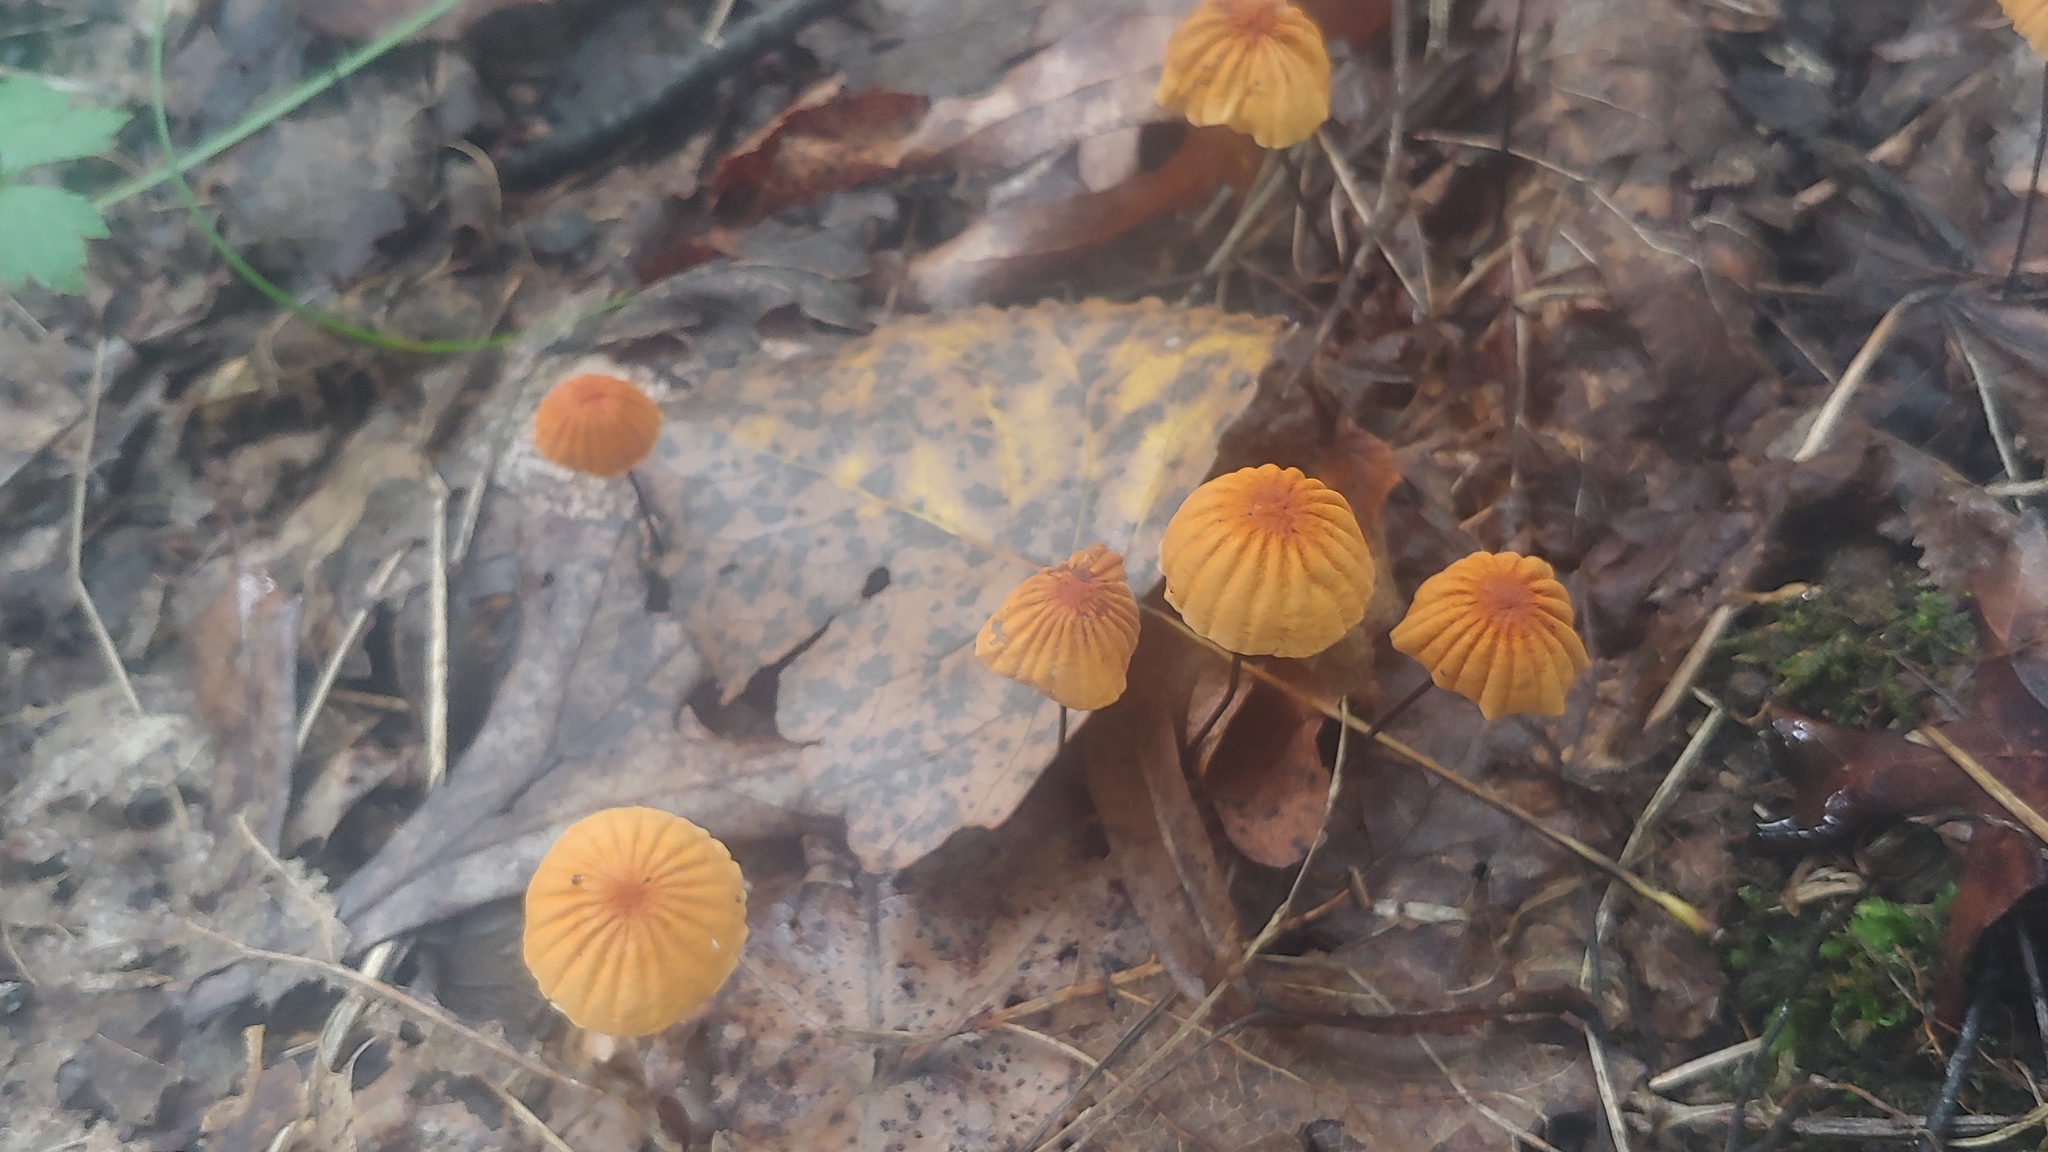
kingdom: Fungi
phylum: Basidiomycota
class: Agaricomycetes
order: Agaricales
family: Marasmiaceae
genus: Marasmius
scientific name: Marasmius siccus
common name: Orange pinwheel
